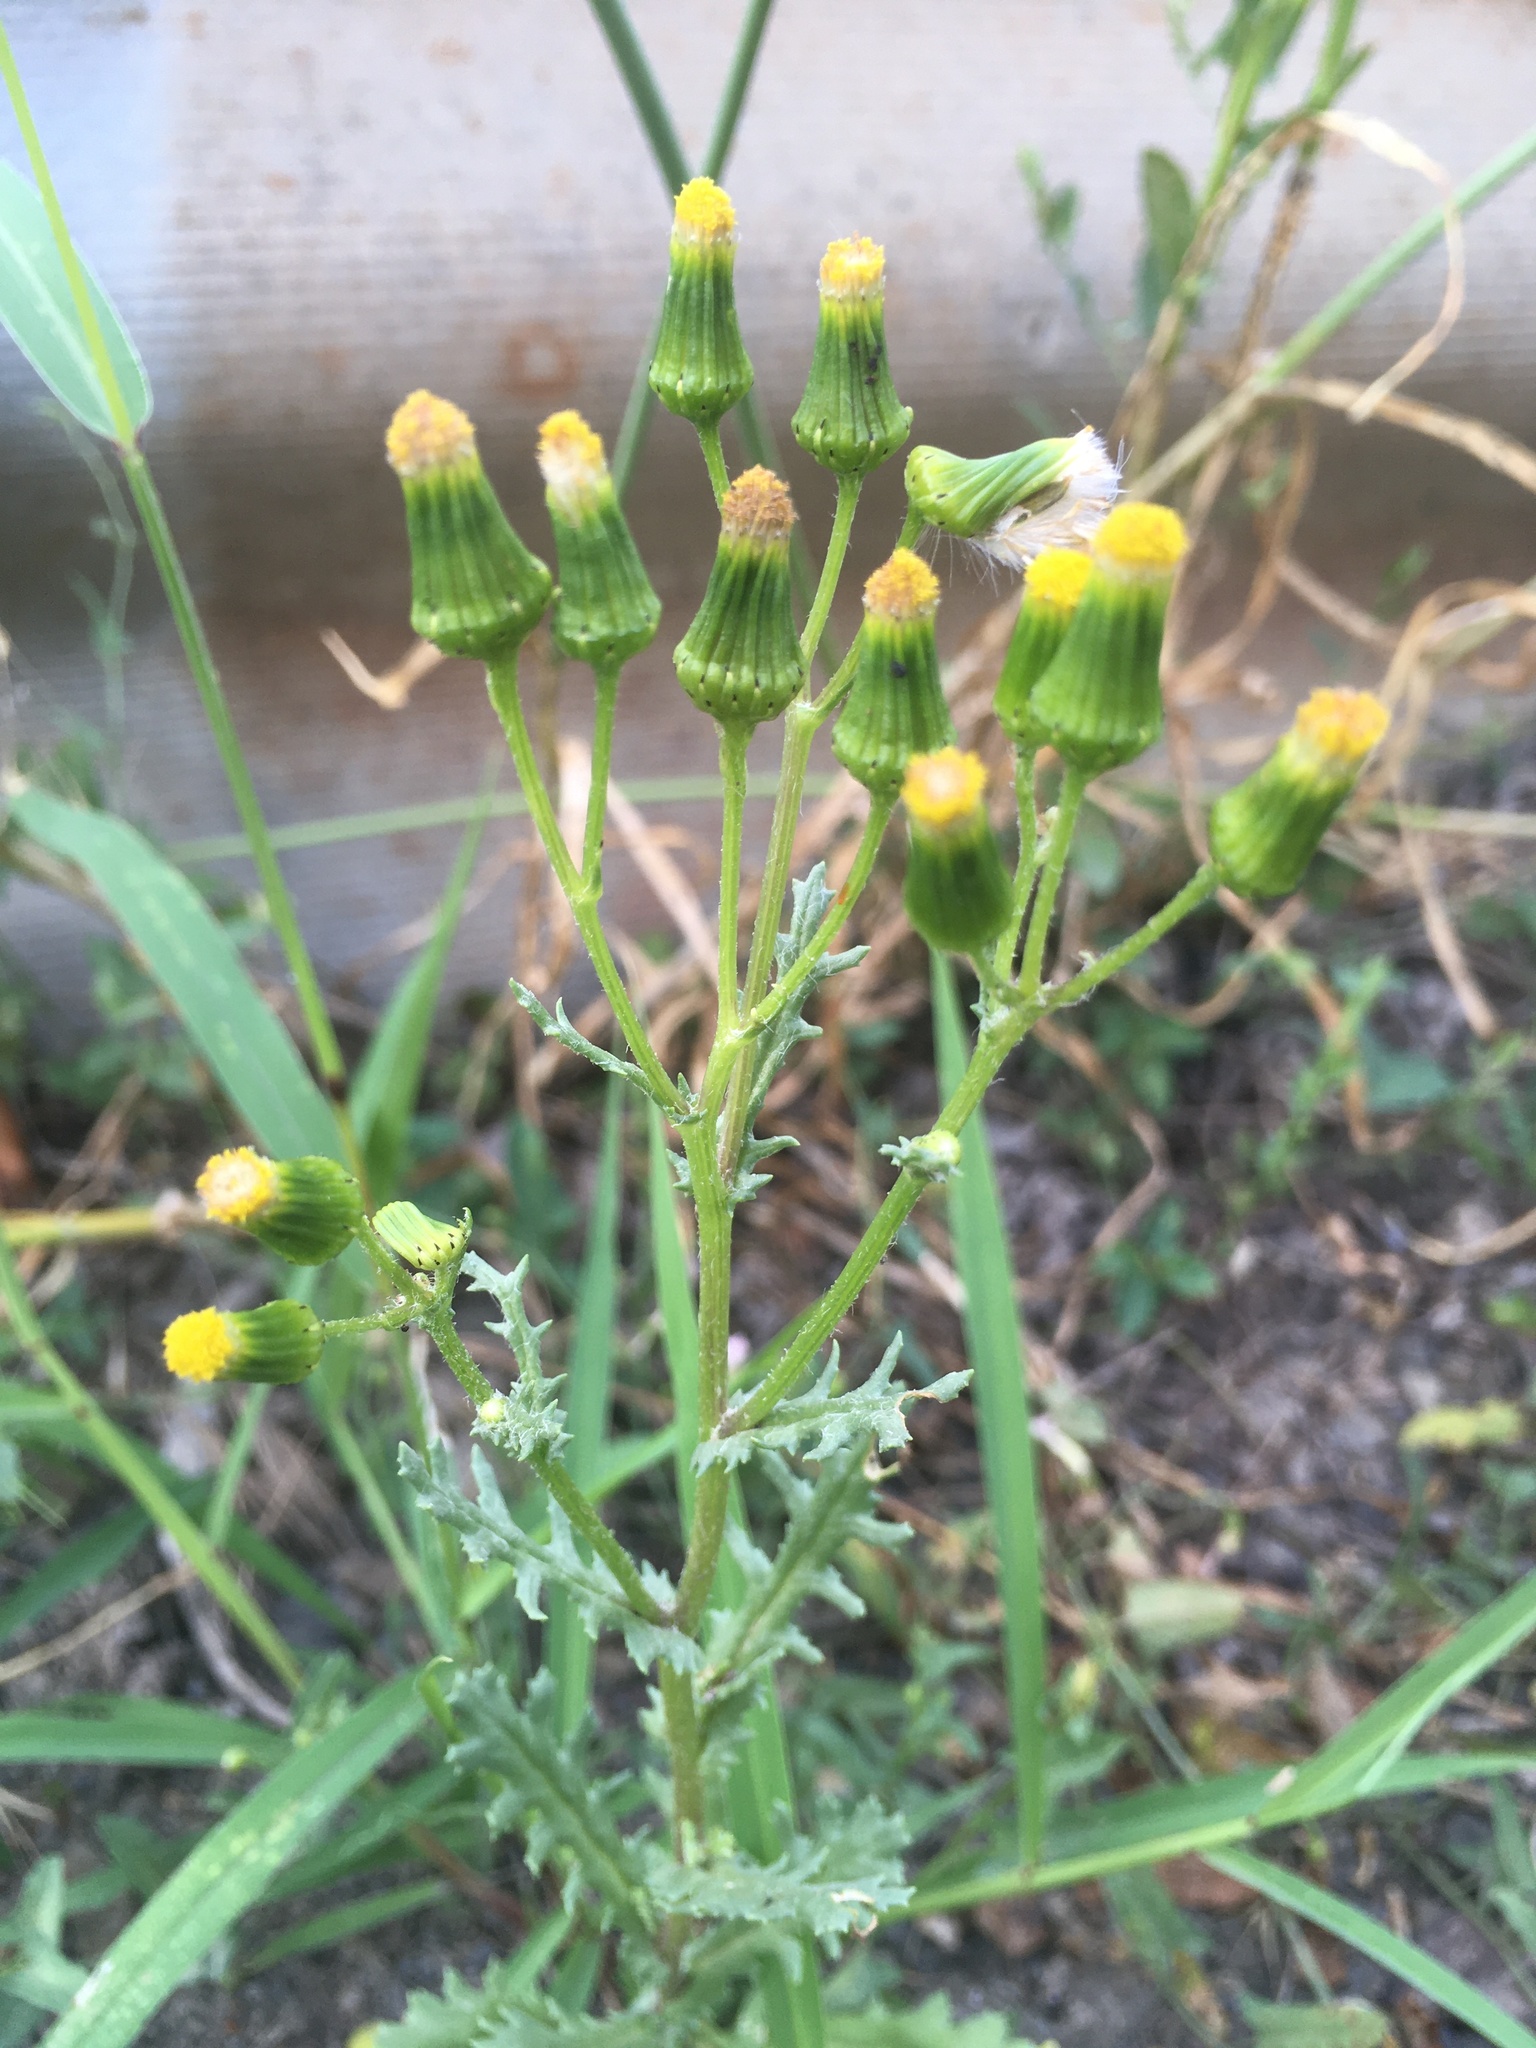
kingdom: Plantae
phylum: Tracheophyta
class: Magnoliopsida
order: Asterales
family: Asteraceae
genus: Senecio
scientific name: Senecio vulgaris
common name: Old-man-in-the-spring
